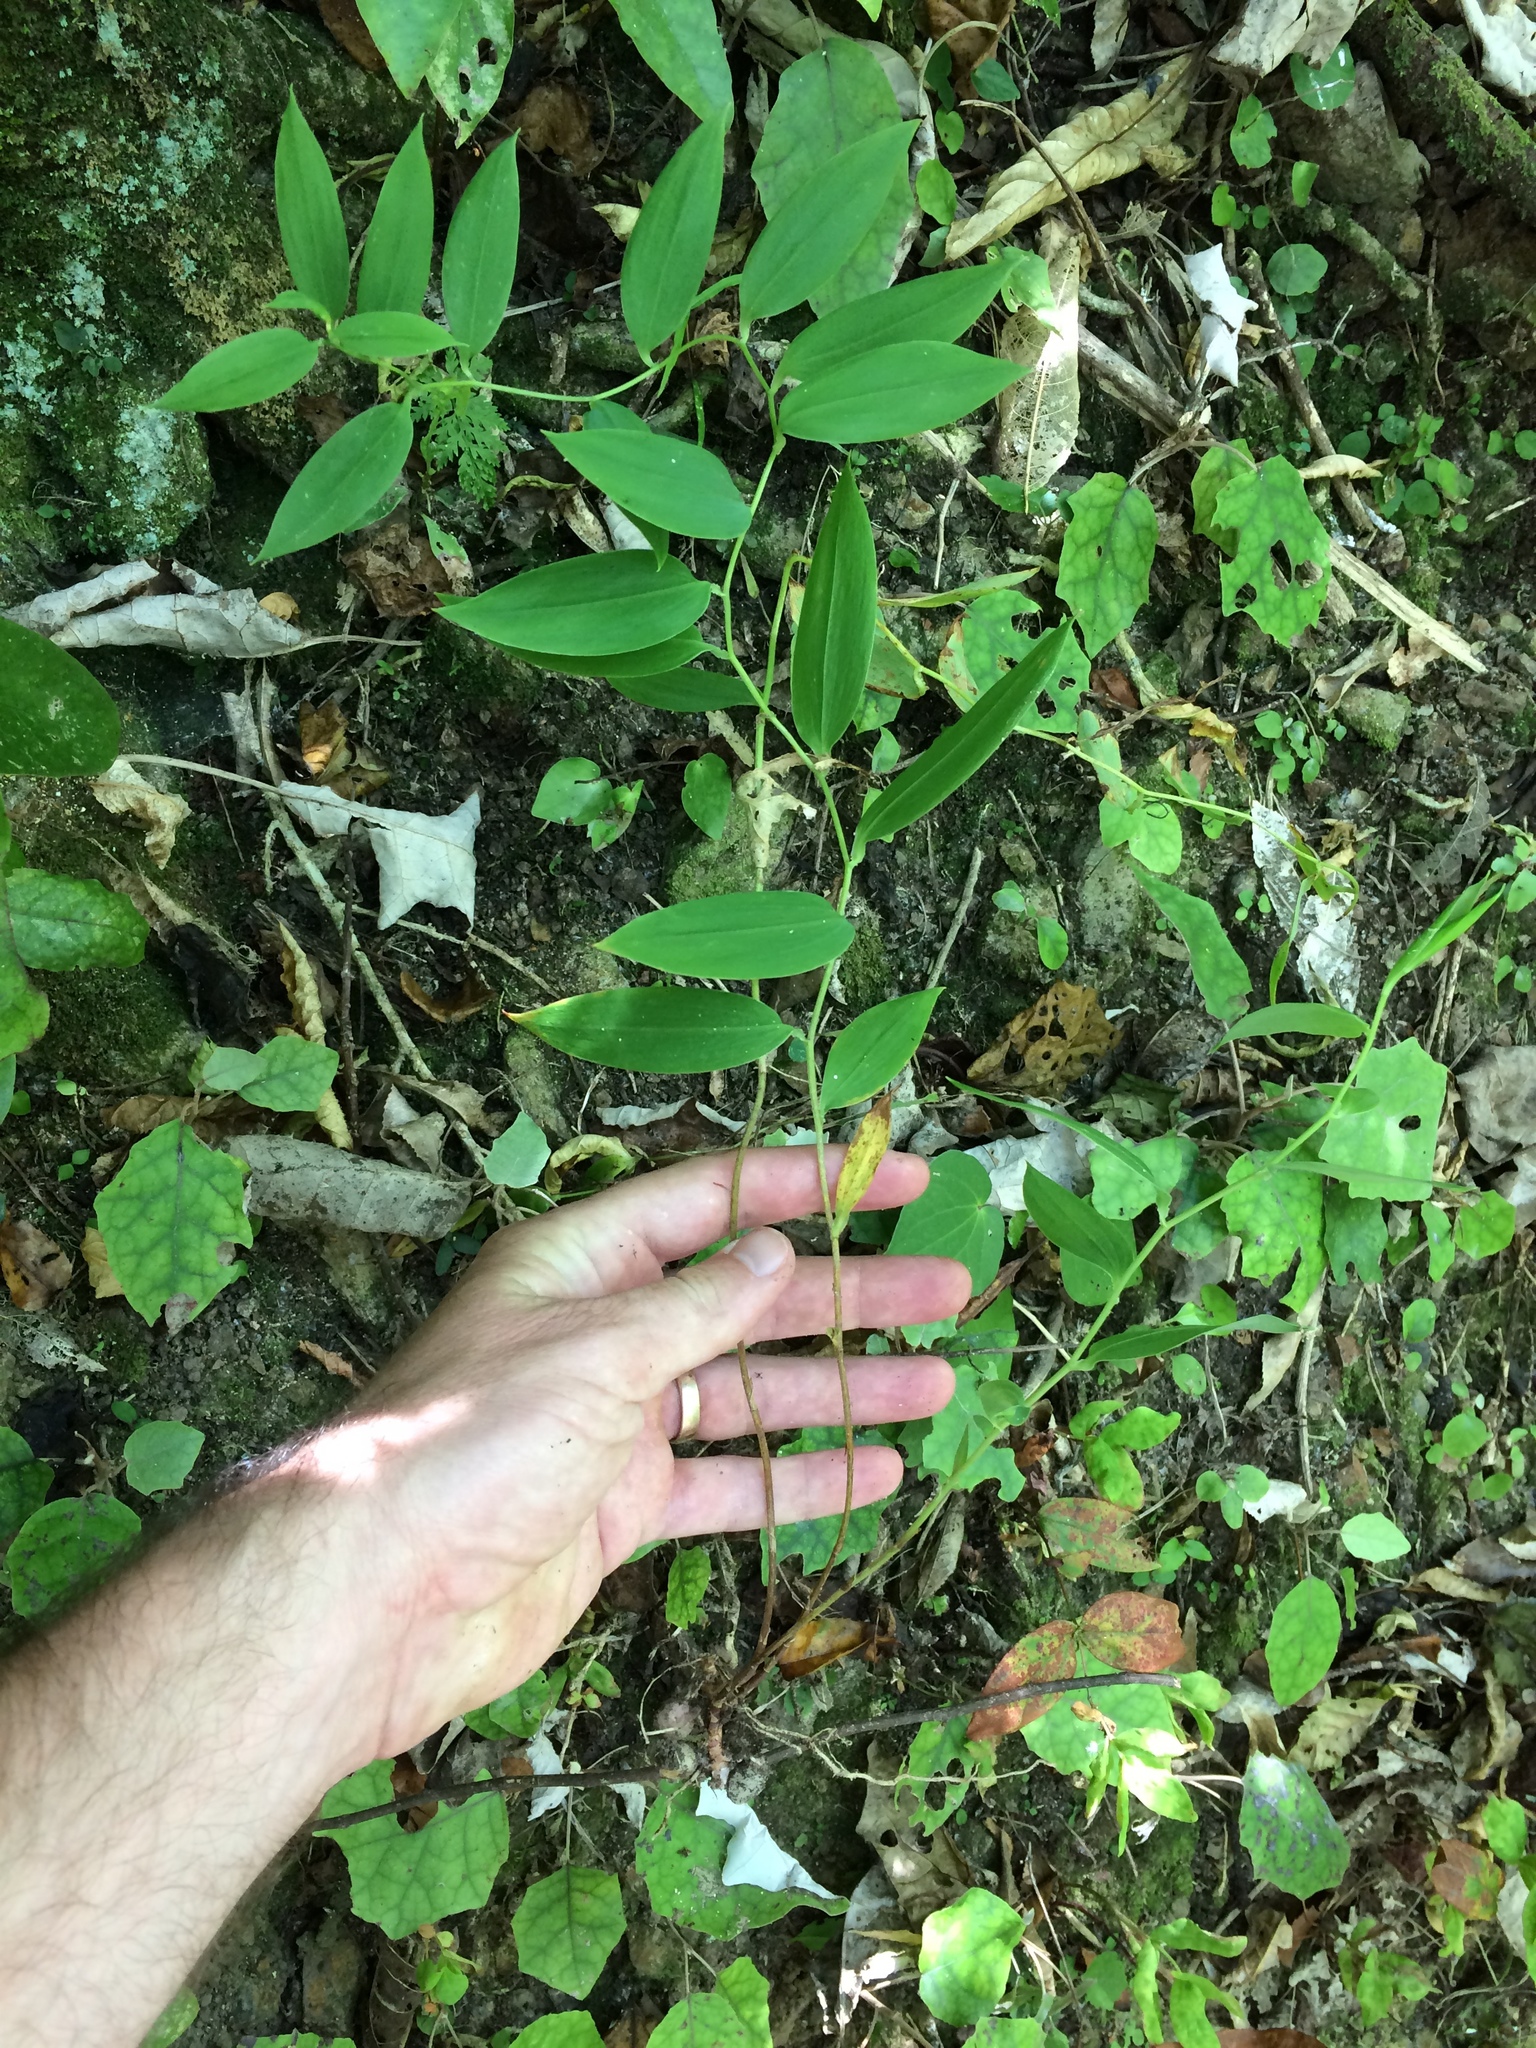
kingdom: Plantae
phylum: Tracheophyta
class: Liliopsida
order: Liliales
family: Alstroemeriaceae
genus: Bomarea
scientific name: Bomarea multiflora
